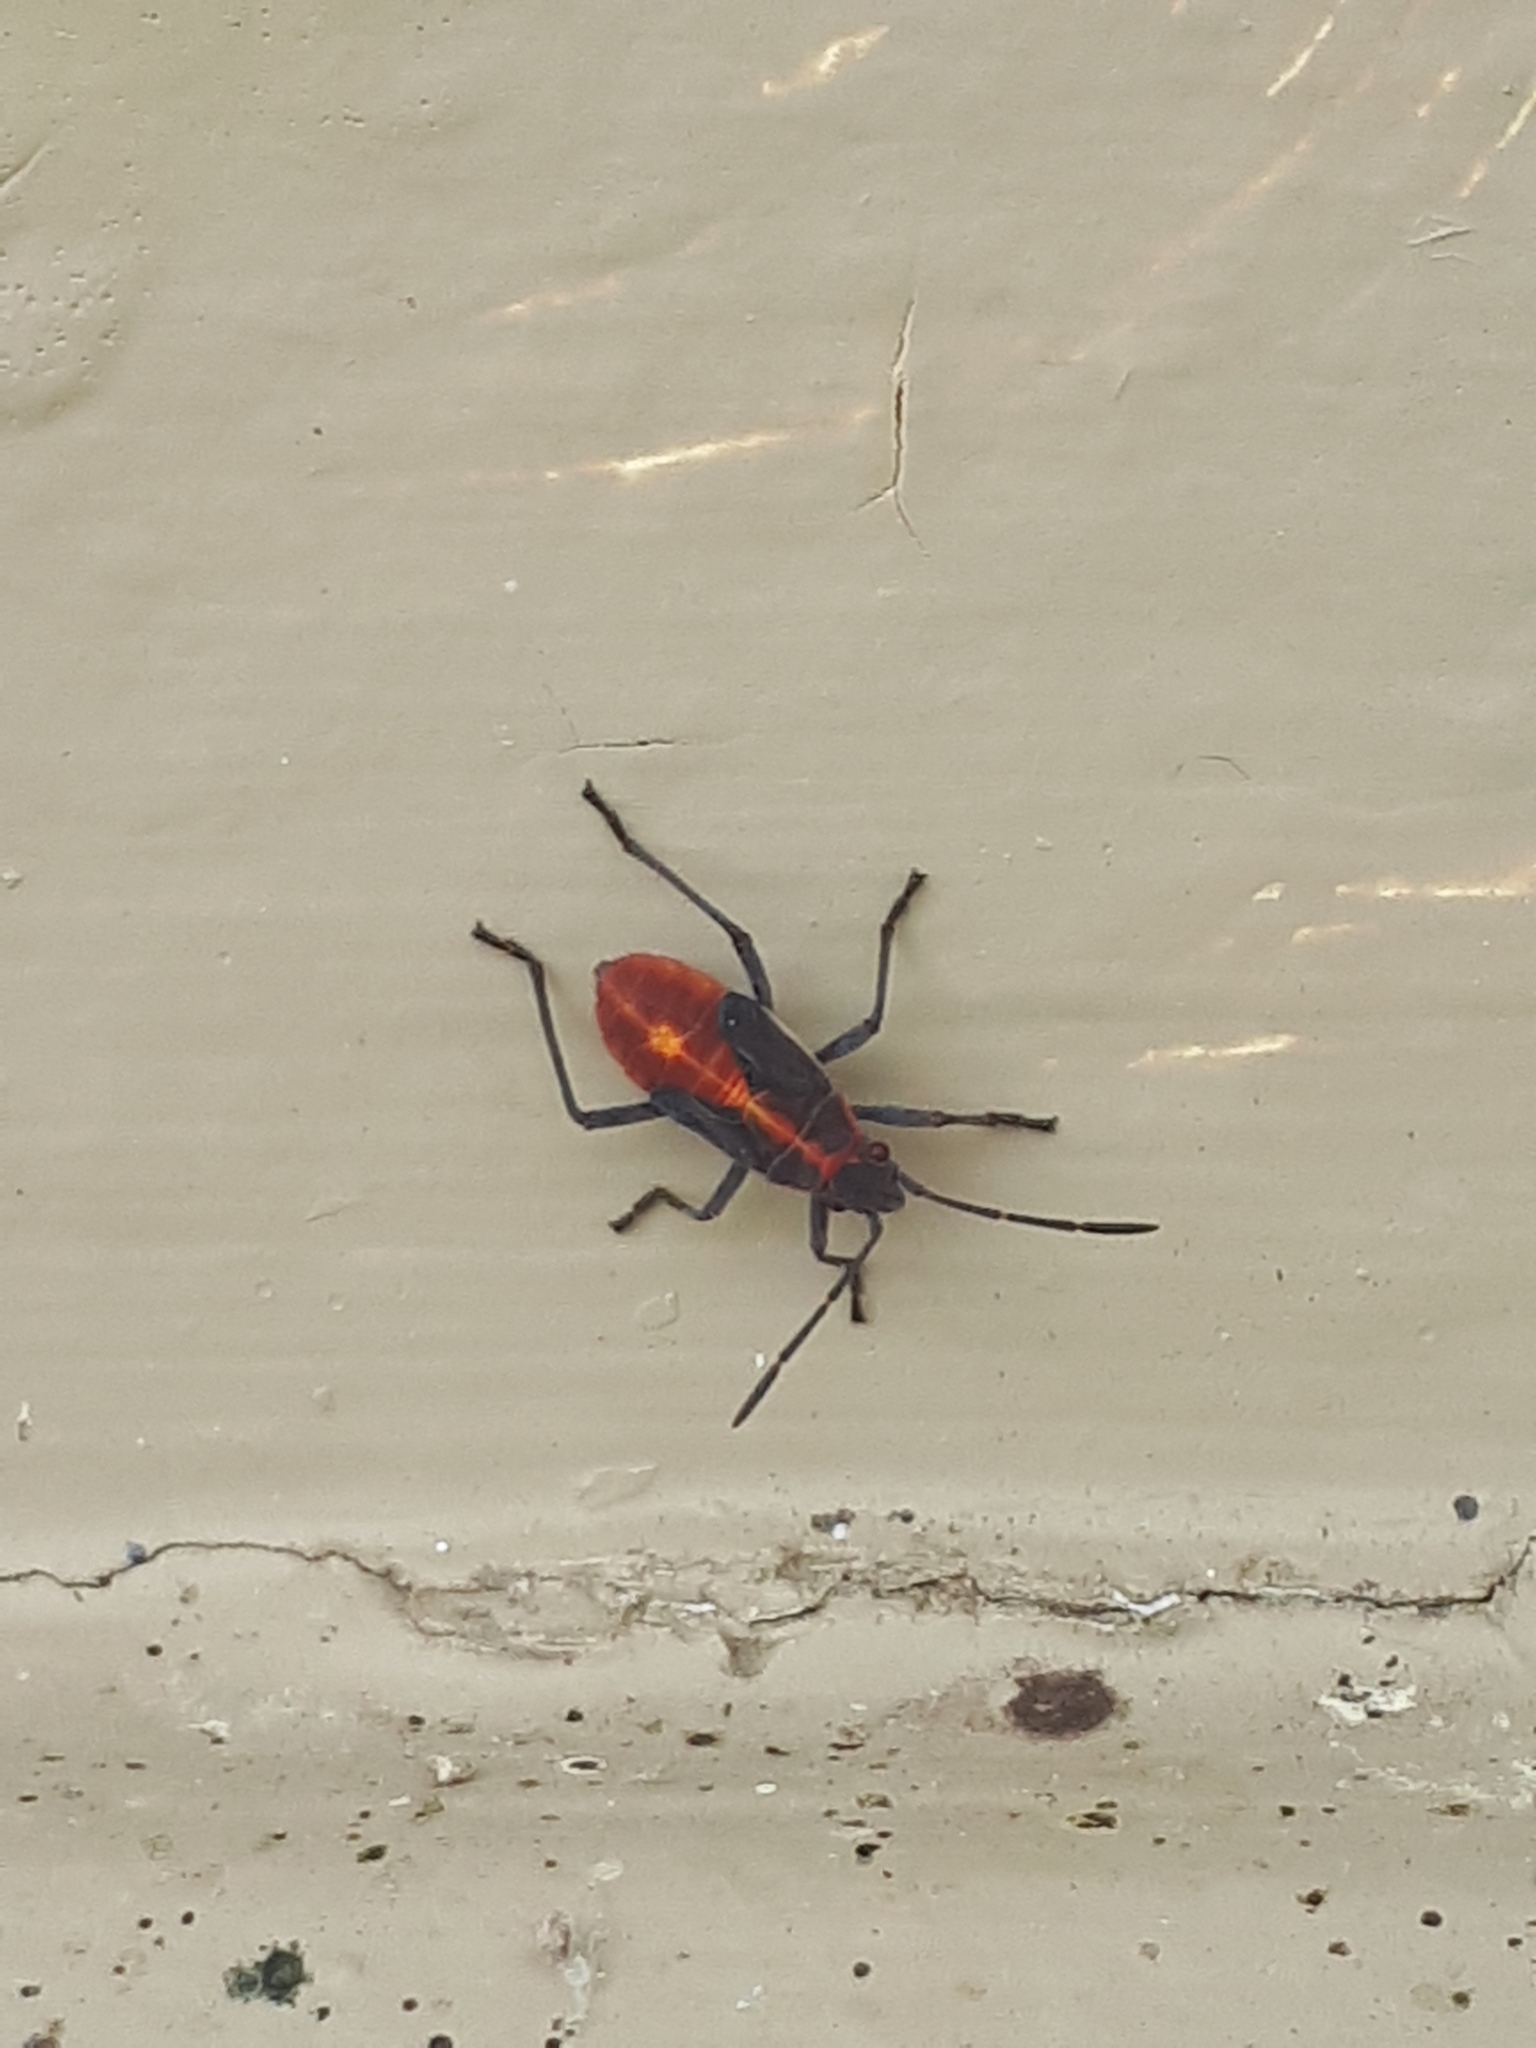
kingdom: Animalia
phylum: Arthropoda
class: Insecta
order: Hemiptera
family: Rhopalidae
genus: Boisea
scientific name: Boisea trivittata
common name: Boxelder bug
